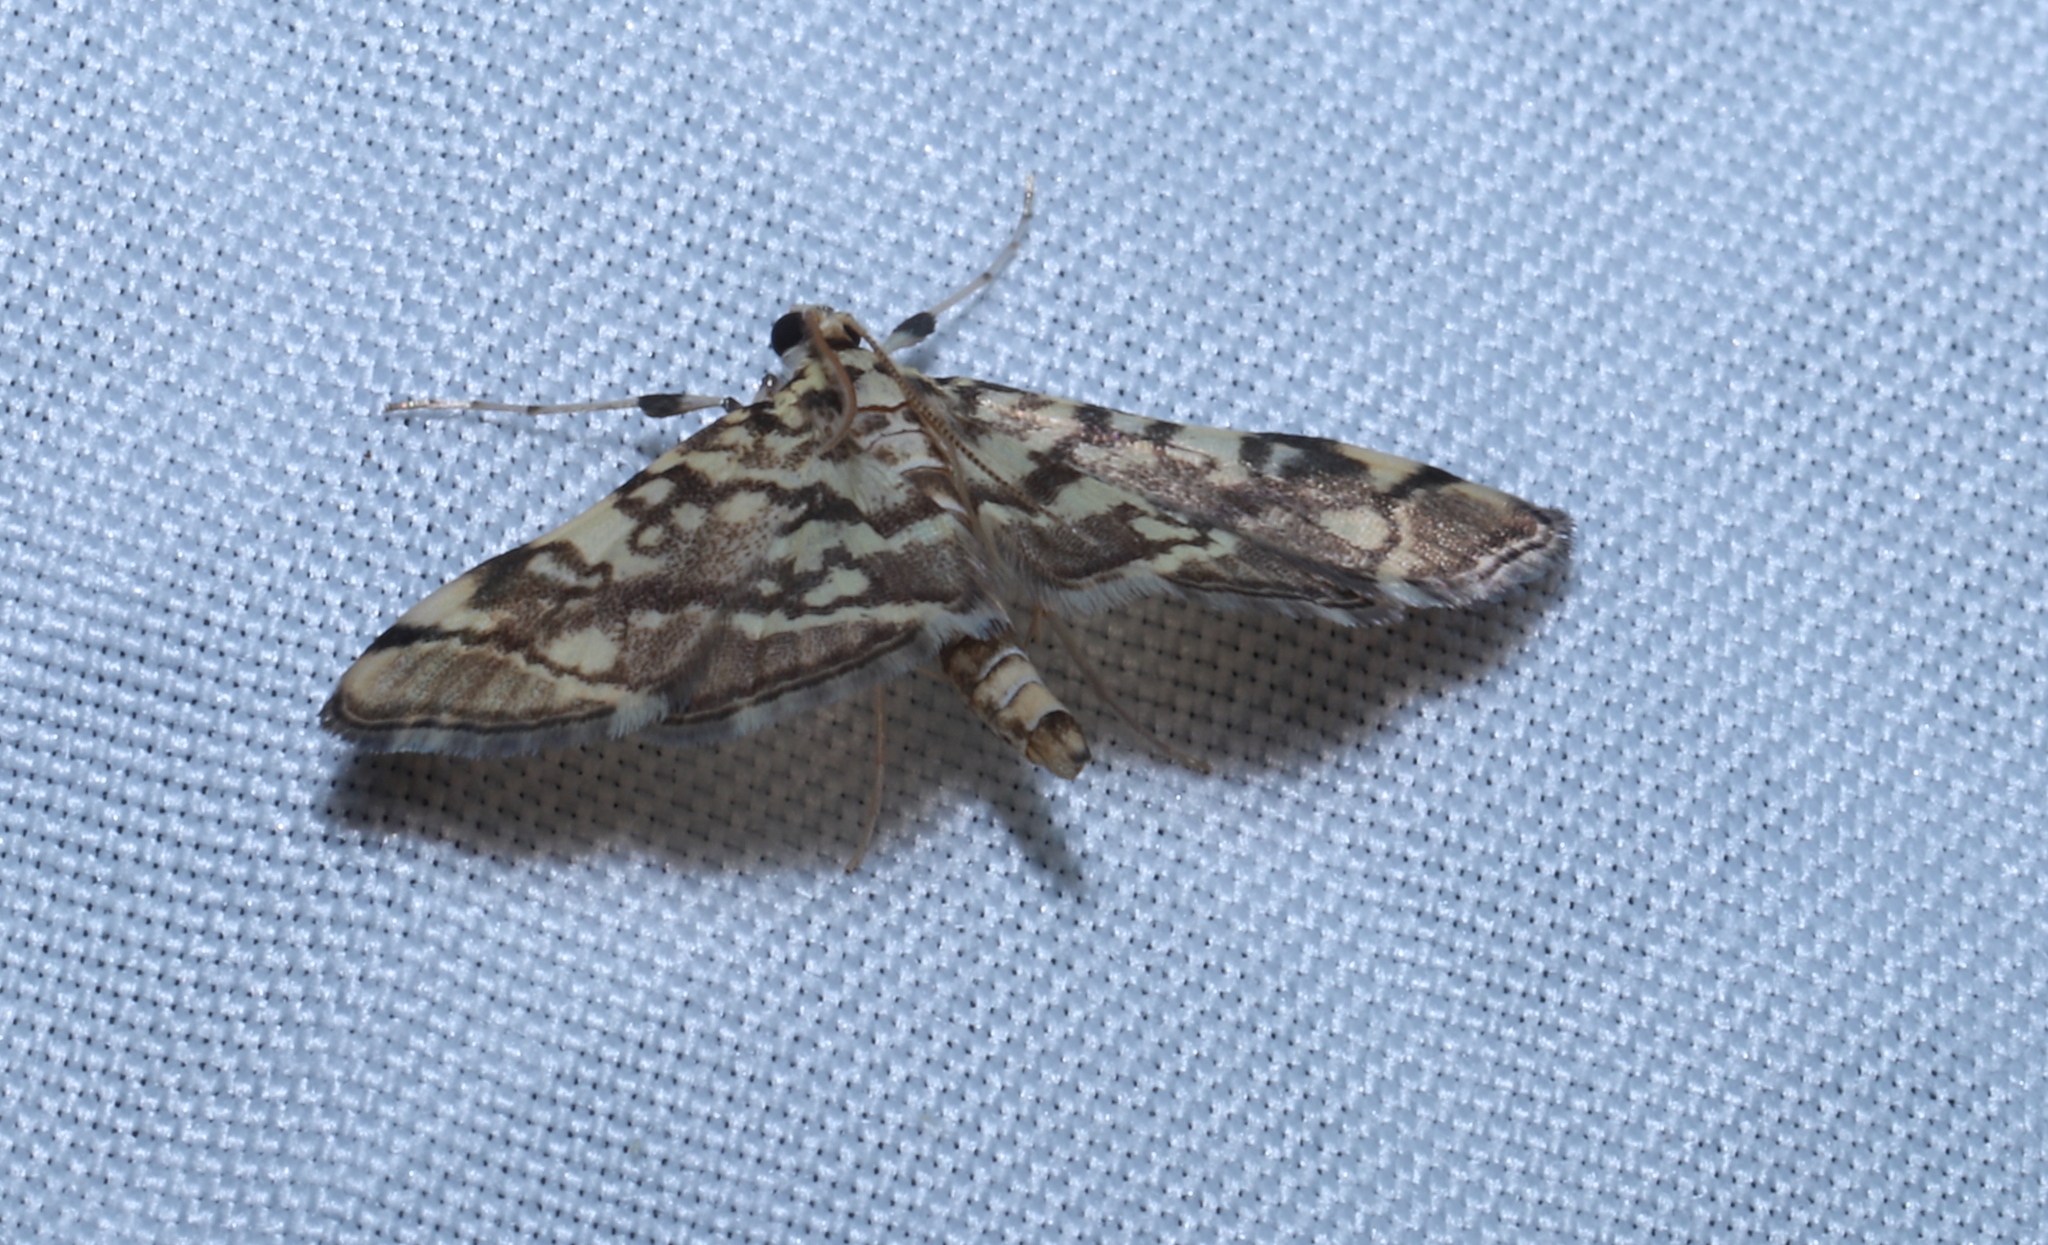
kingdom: Animalia
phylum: Arthropoda
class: Insecta
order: Lepidoptera
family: Crambidae
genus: Apogeshna
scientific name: Apogeshna stenialis
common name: Checkered apogeshna moth
